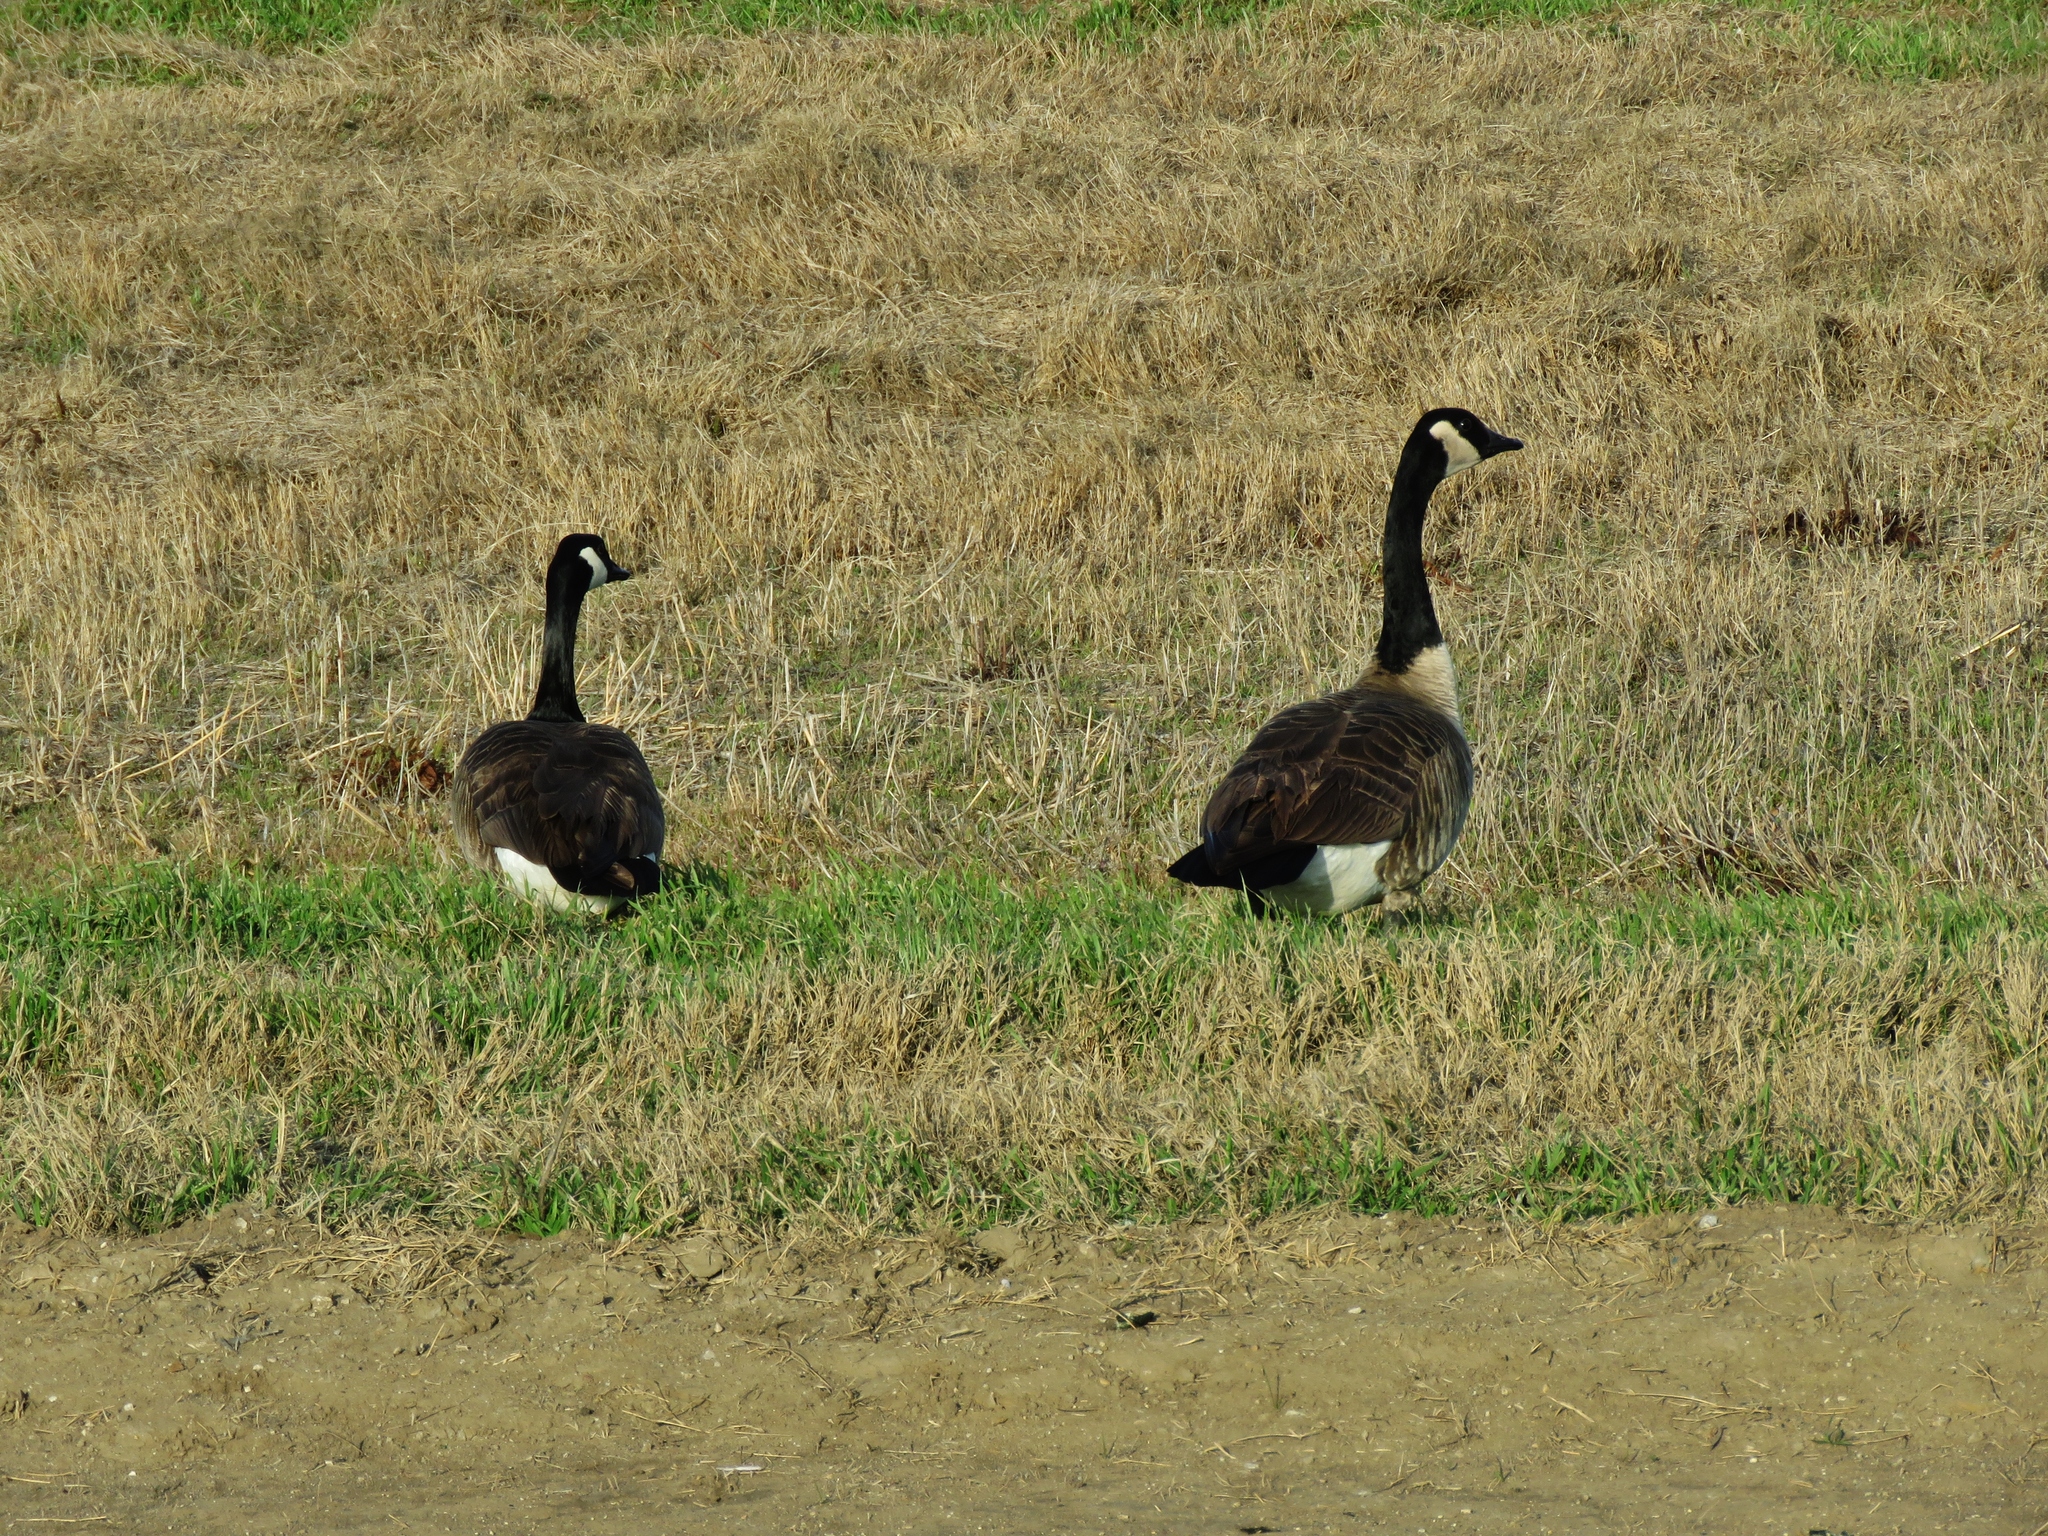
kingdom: Animalia
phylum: Chordata
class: Aves
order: Anseriformes
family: Anatidae
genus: Branta
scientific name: Branta canadensis
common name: Canada goose
